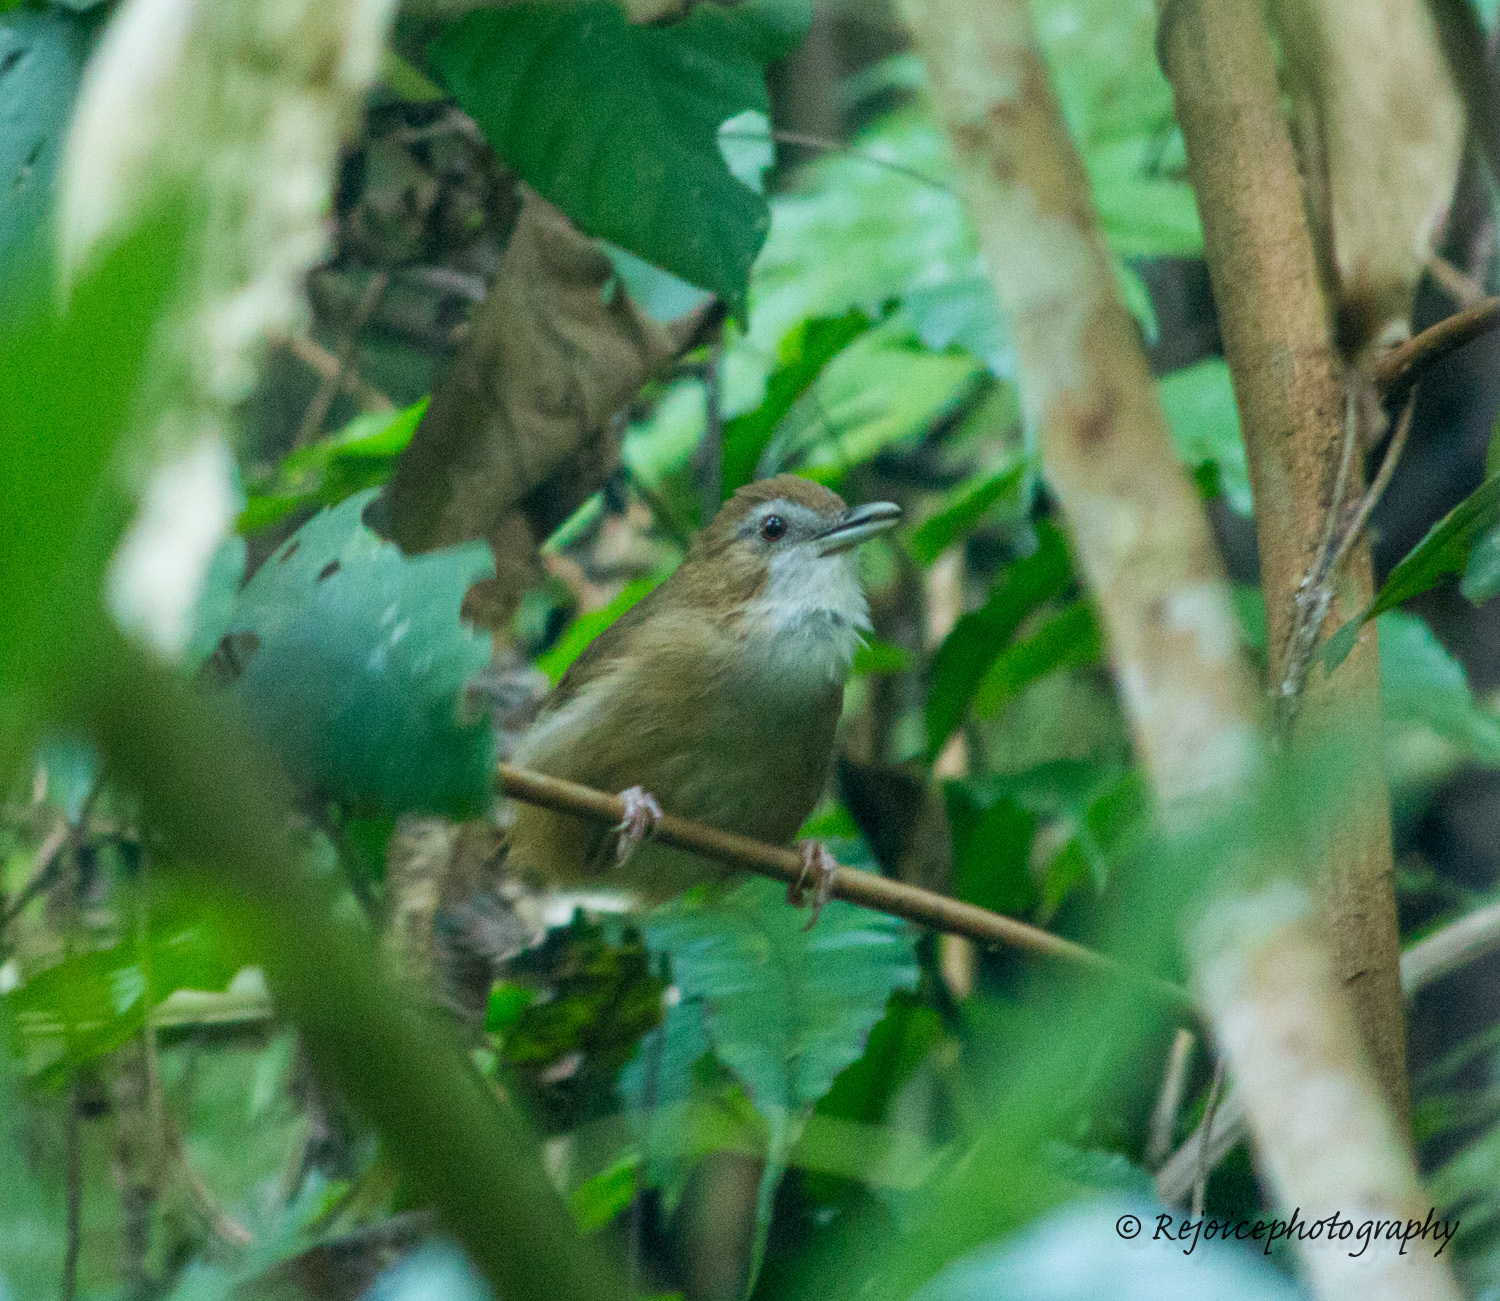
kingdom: Animalia
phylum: Chordata
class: Aves
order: Passeriformes
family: Pellorneidae
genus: Malacocincla
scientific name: Malacocincla abbotti
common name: Abbott's babbler
